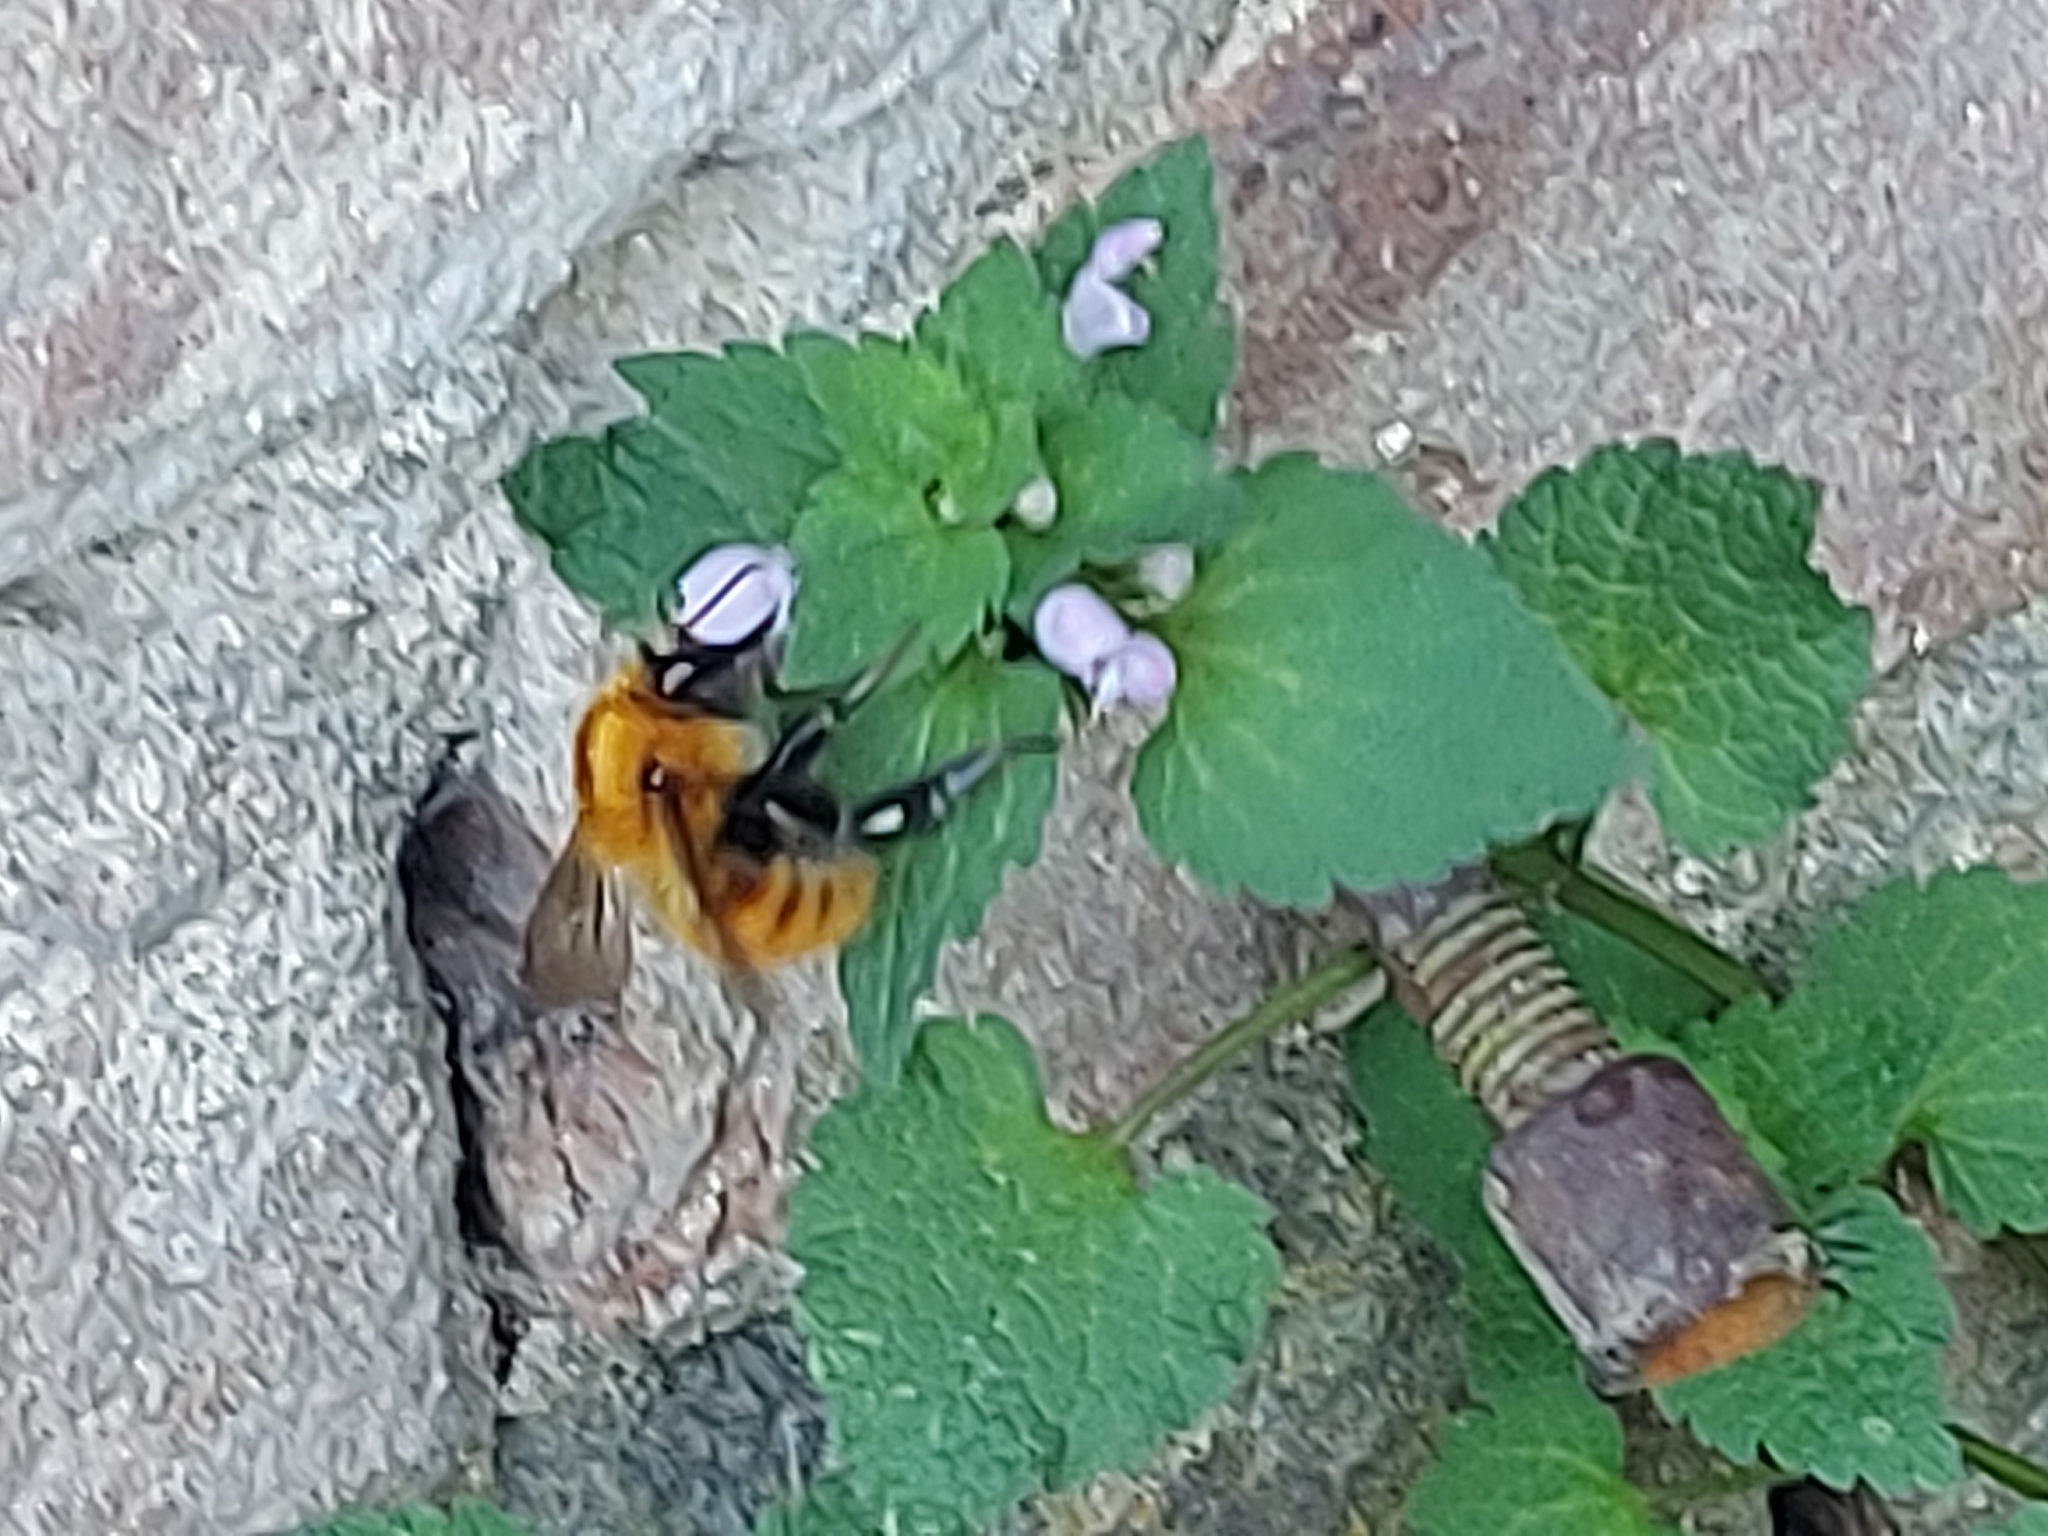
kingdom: Animalia
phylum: Arthropoda
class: Insecta
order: Hymenoptera
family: Apidae
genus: Bombus
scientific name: Bombus pascuorum
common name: Common carder bee
